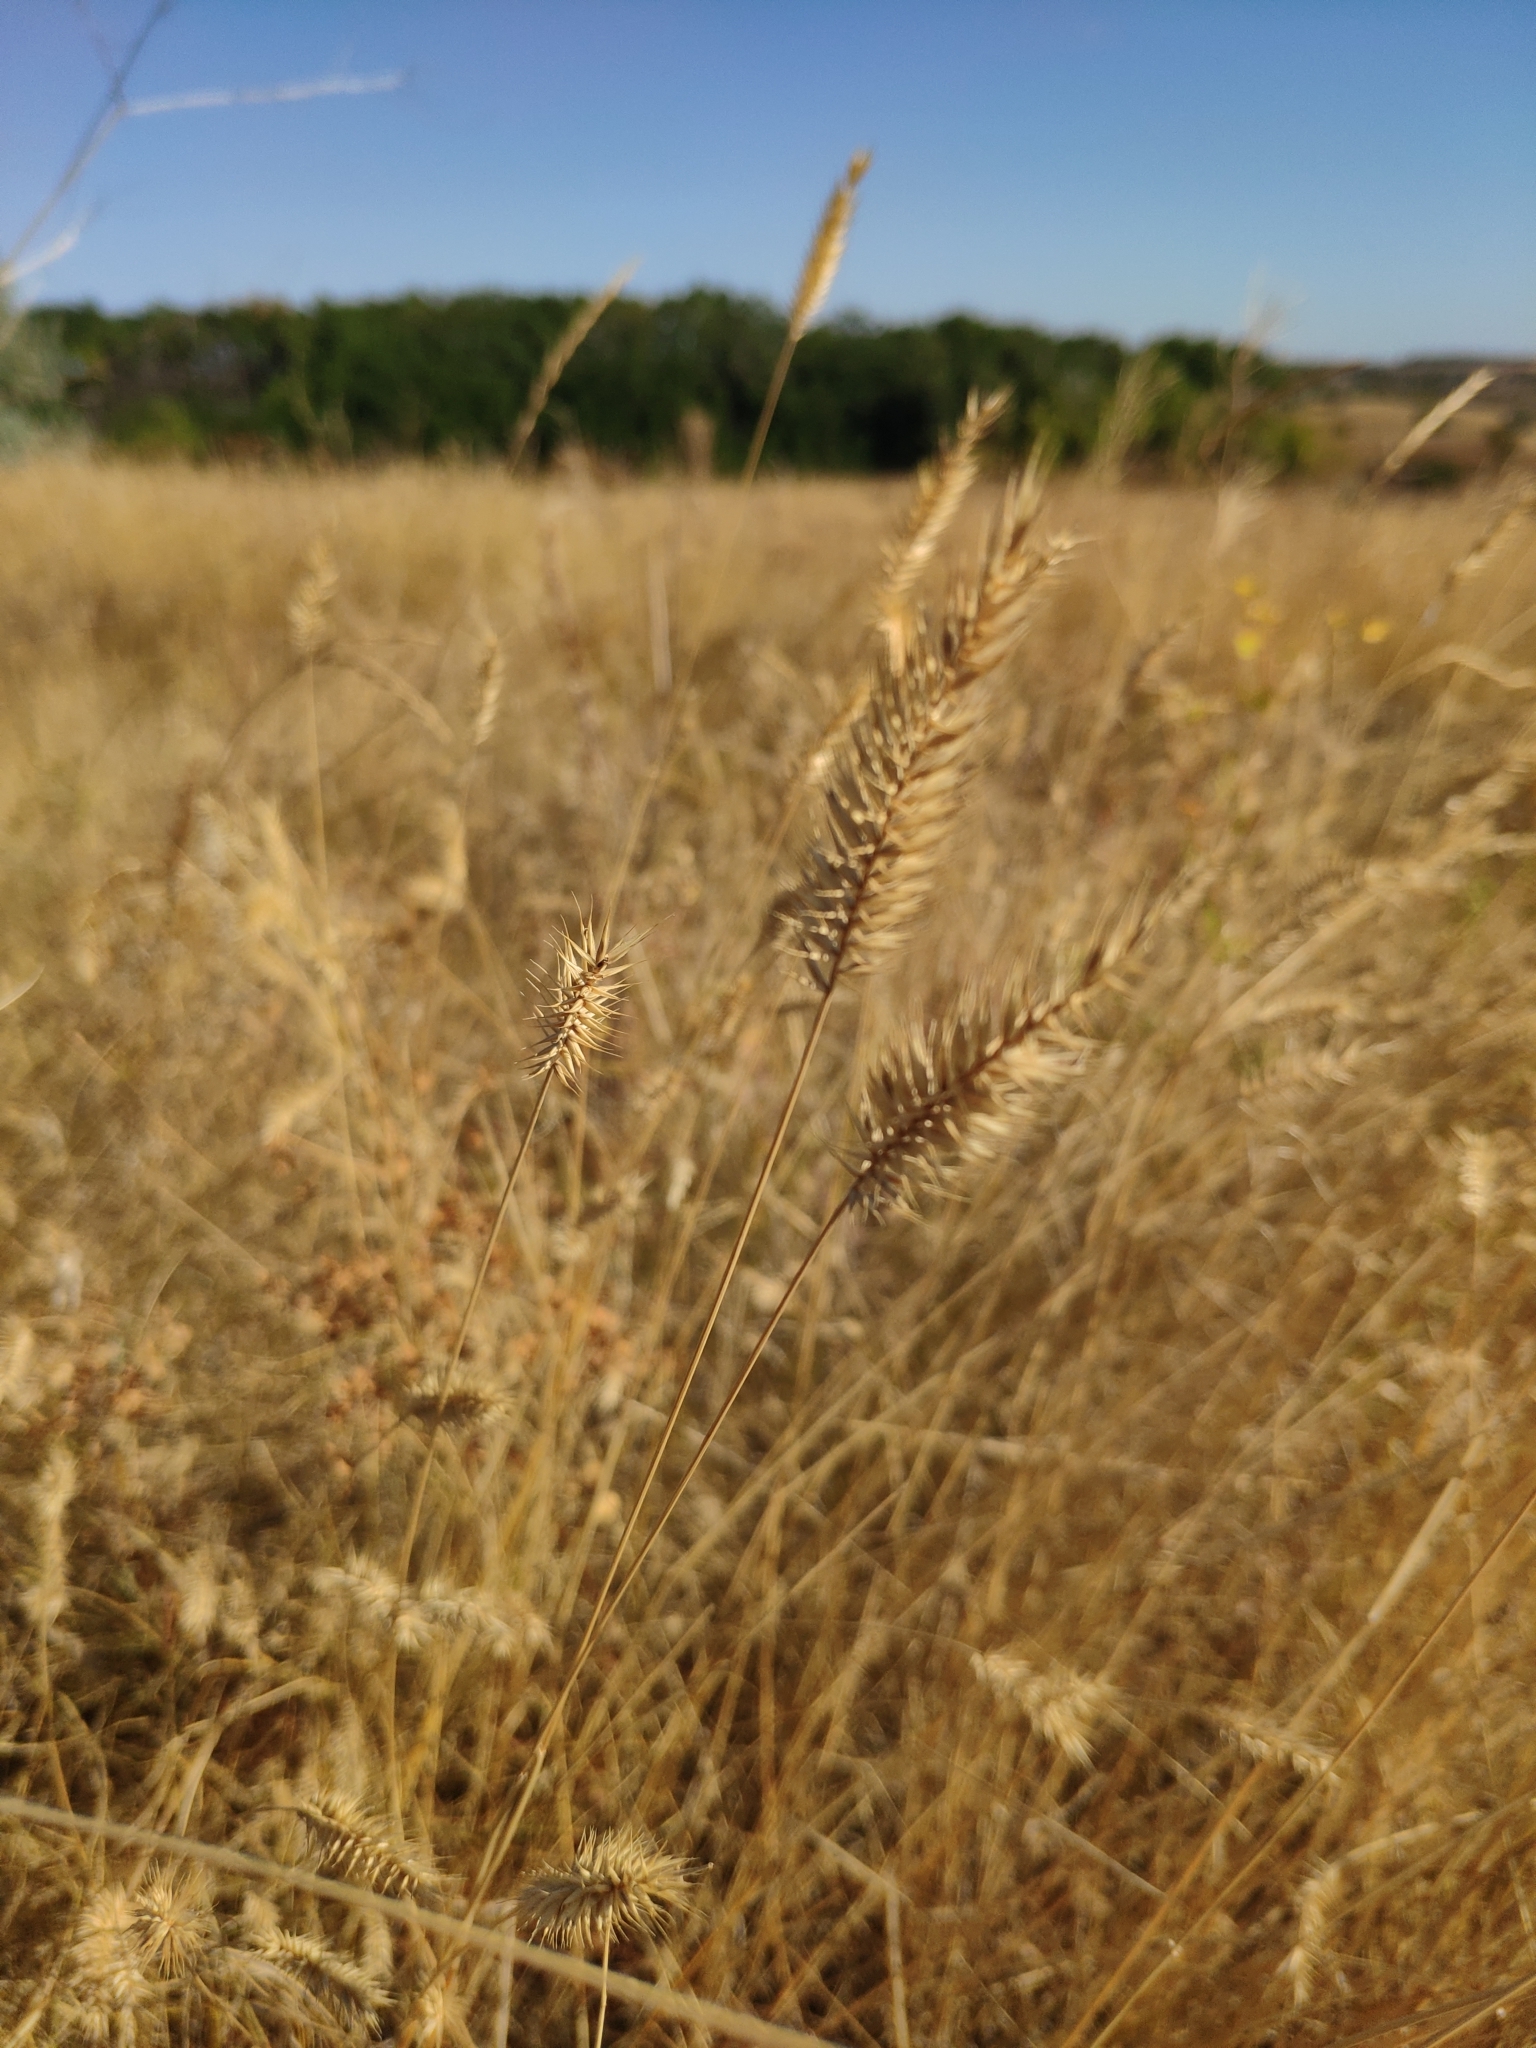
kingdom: Plantae
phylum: Tracheophyta
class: Liliopsida
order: Poales
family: Poaceae
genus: Agropyron
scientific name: Agropyron cristatum
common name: Crested wheatgrass
